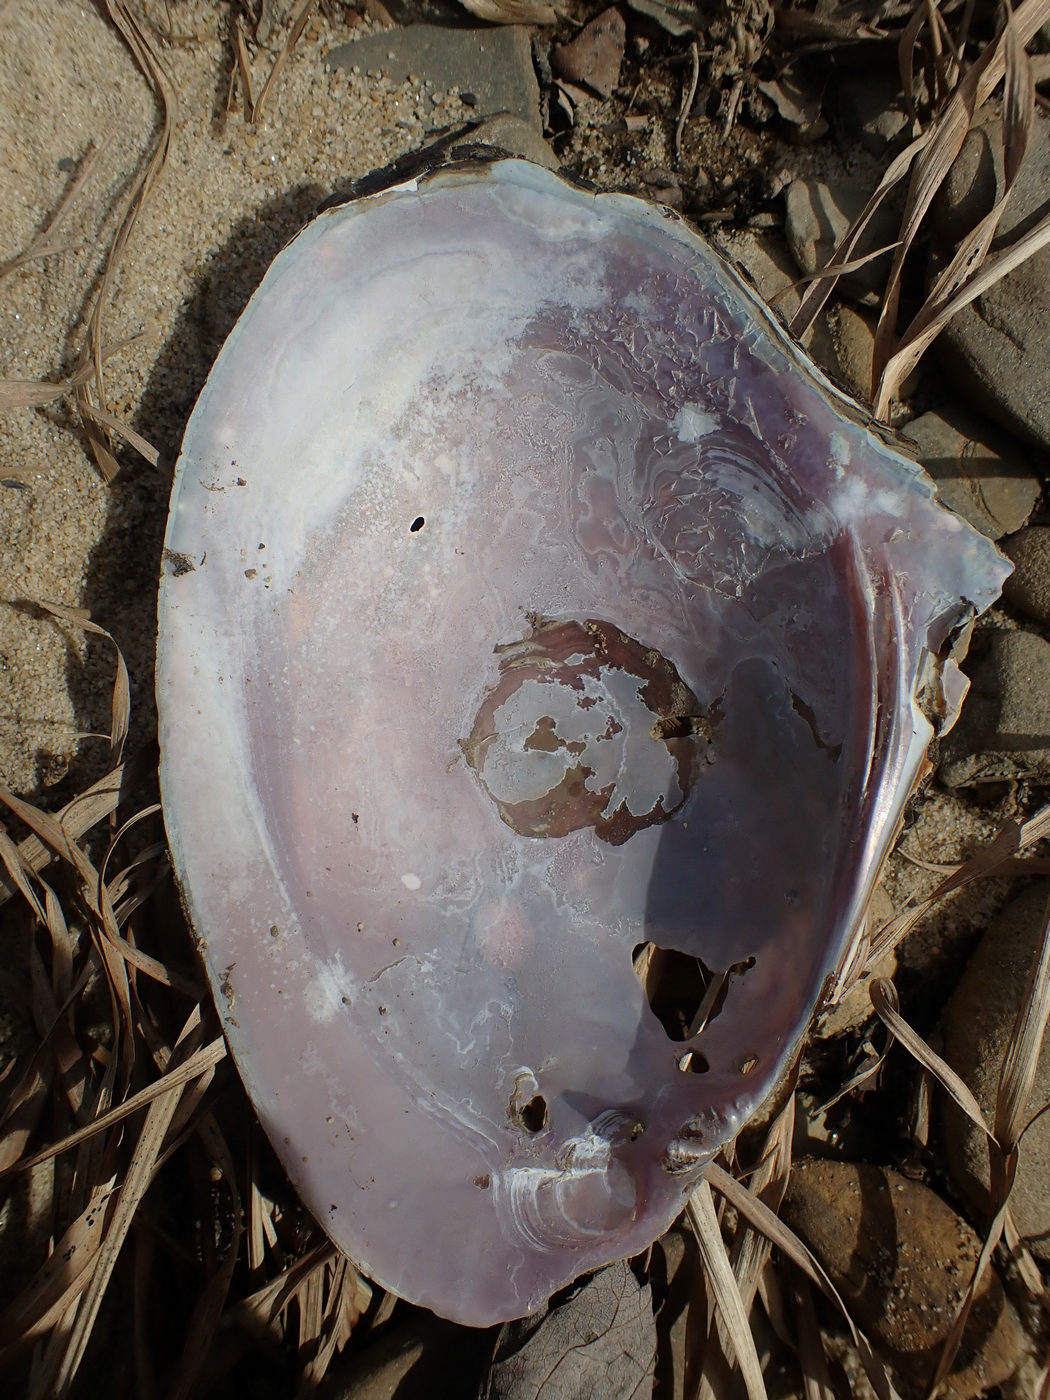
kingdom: Animalia
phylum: Mollusca
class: Bivalvia
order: Unionida
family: Unionidae
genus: Potamilus
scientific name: Potamilus alatus
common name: Pink heelsplitter
